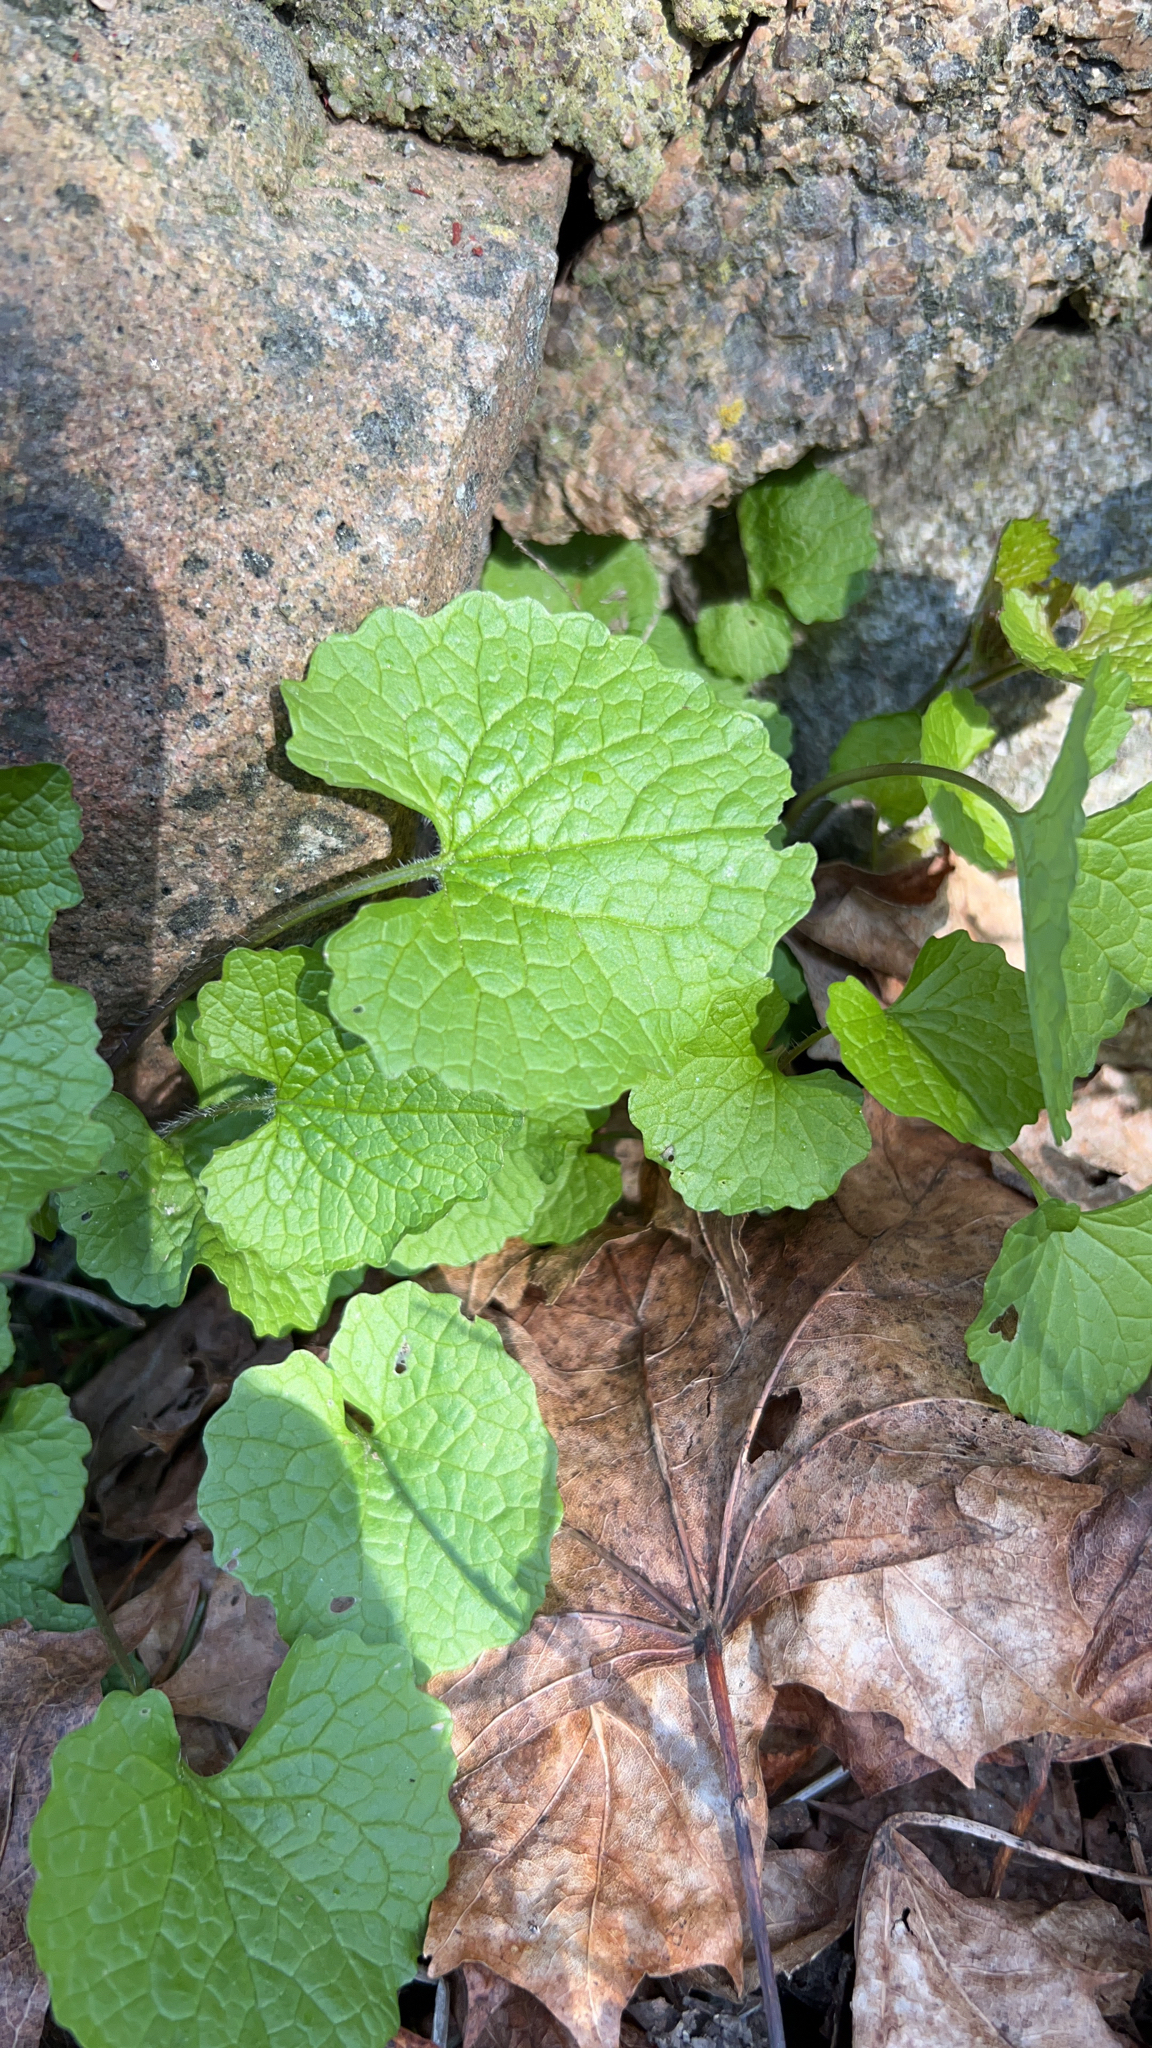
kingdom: Plantae
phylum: Tracheophyta
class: Magnoliopsida
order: Brassicales
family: Brassicaceae
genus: Alliaria
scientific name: Alliaria petiolata
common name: Garlic mustard
